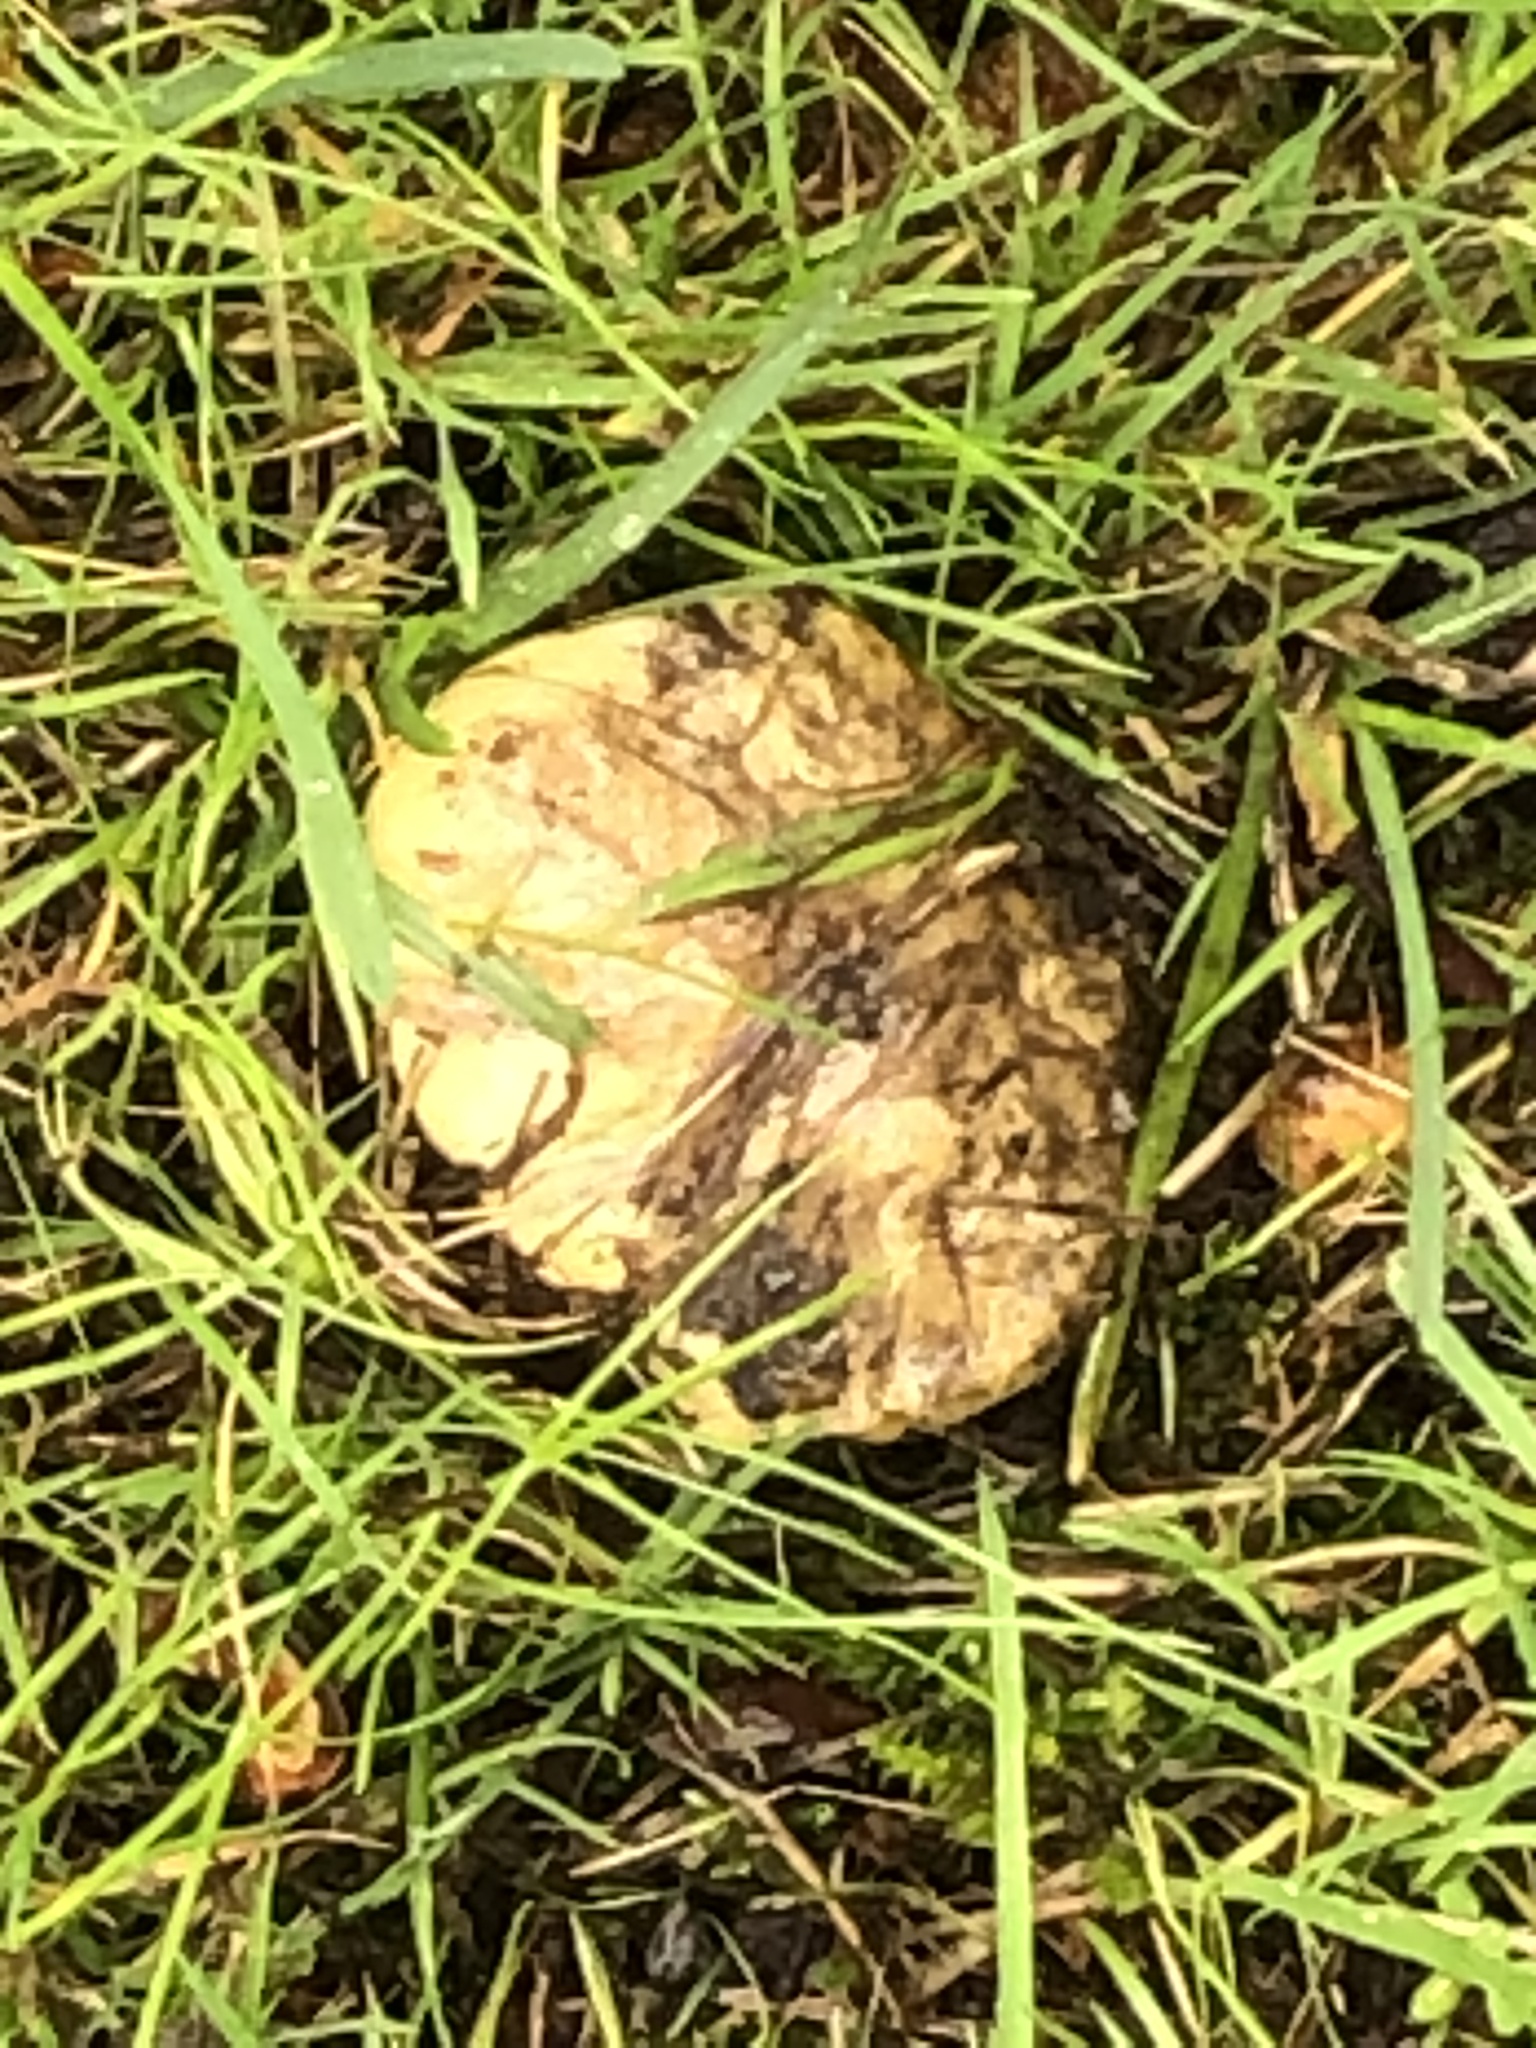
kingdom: Fungi
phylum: Basidiomycota
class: Agaricomycetes
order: Agaricales
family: Amanitaceae
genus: Amanita
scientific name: Amanita phalloides
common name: Death cap
